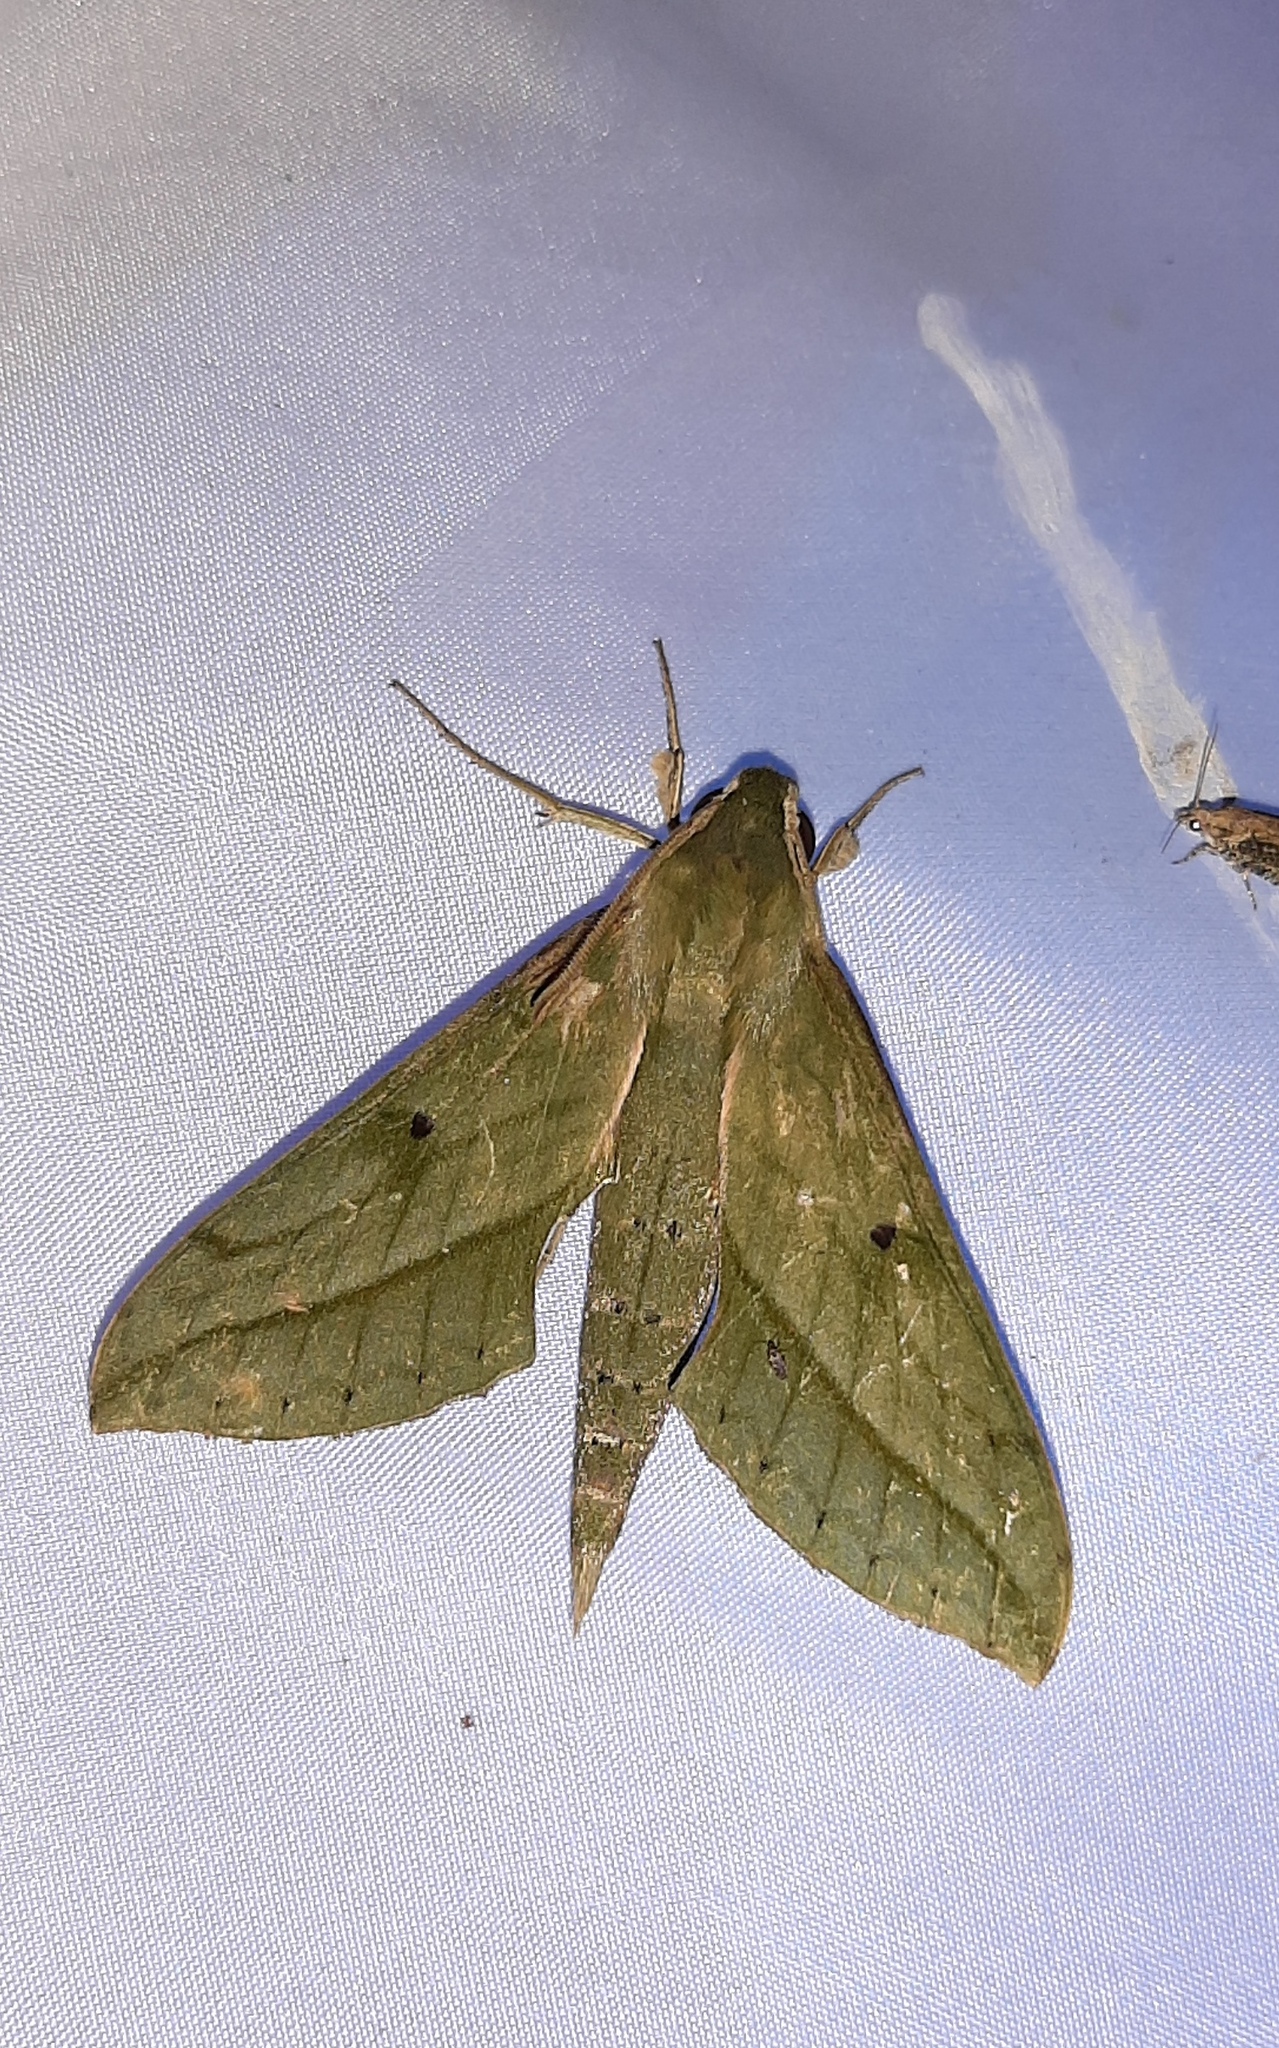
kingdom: Animalia
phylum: Arthropoda
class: Insecta
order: Lepidoptera
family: Sphingidae
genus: Xylophanes
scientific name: Xylophanes fassli
